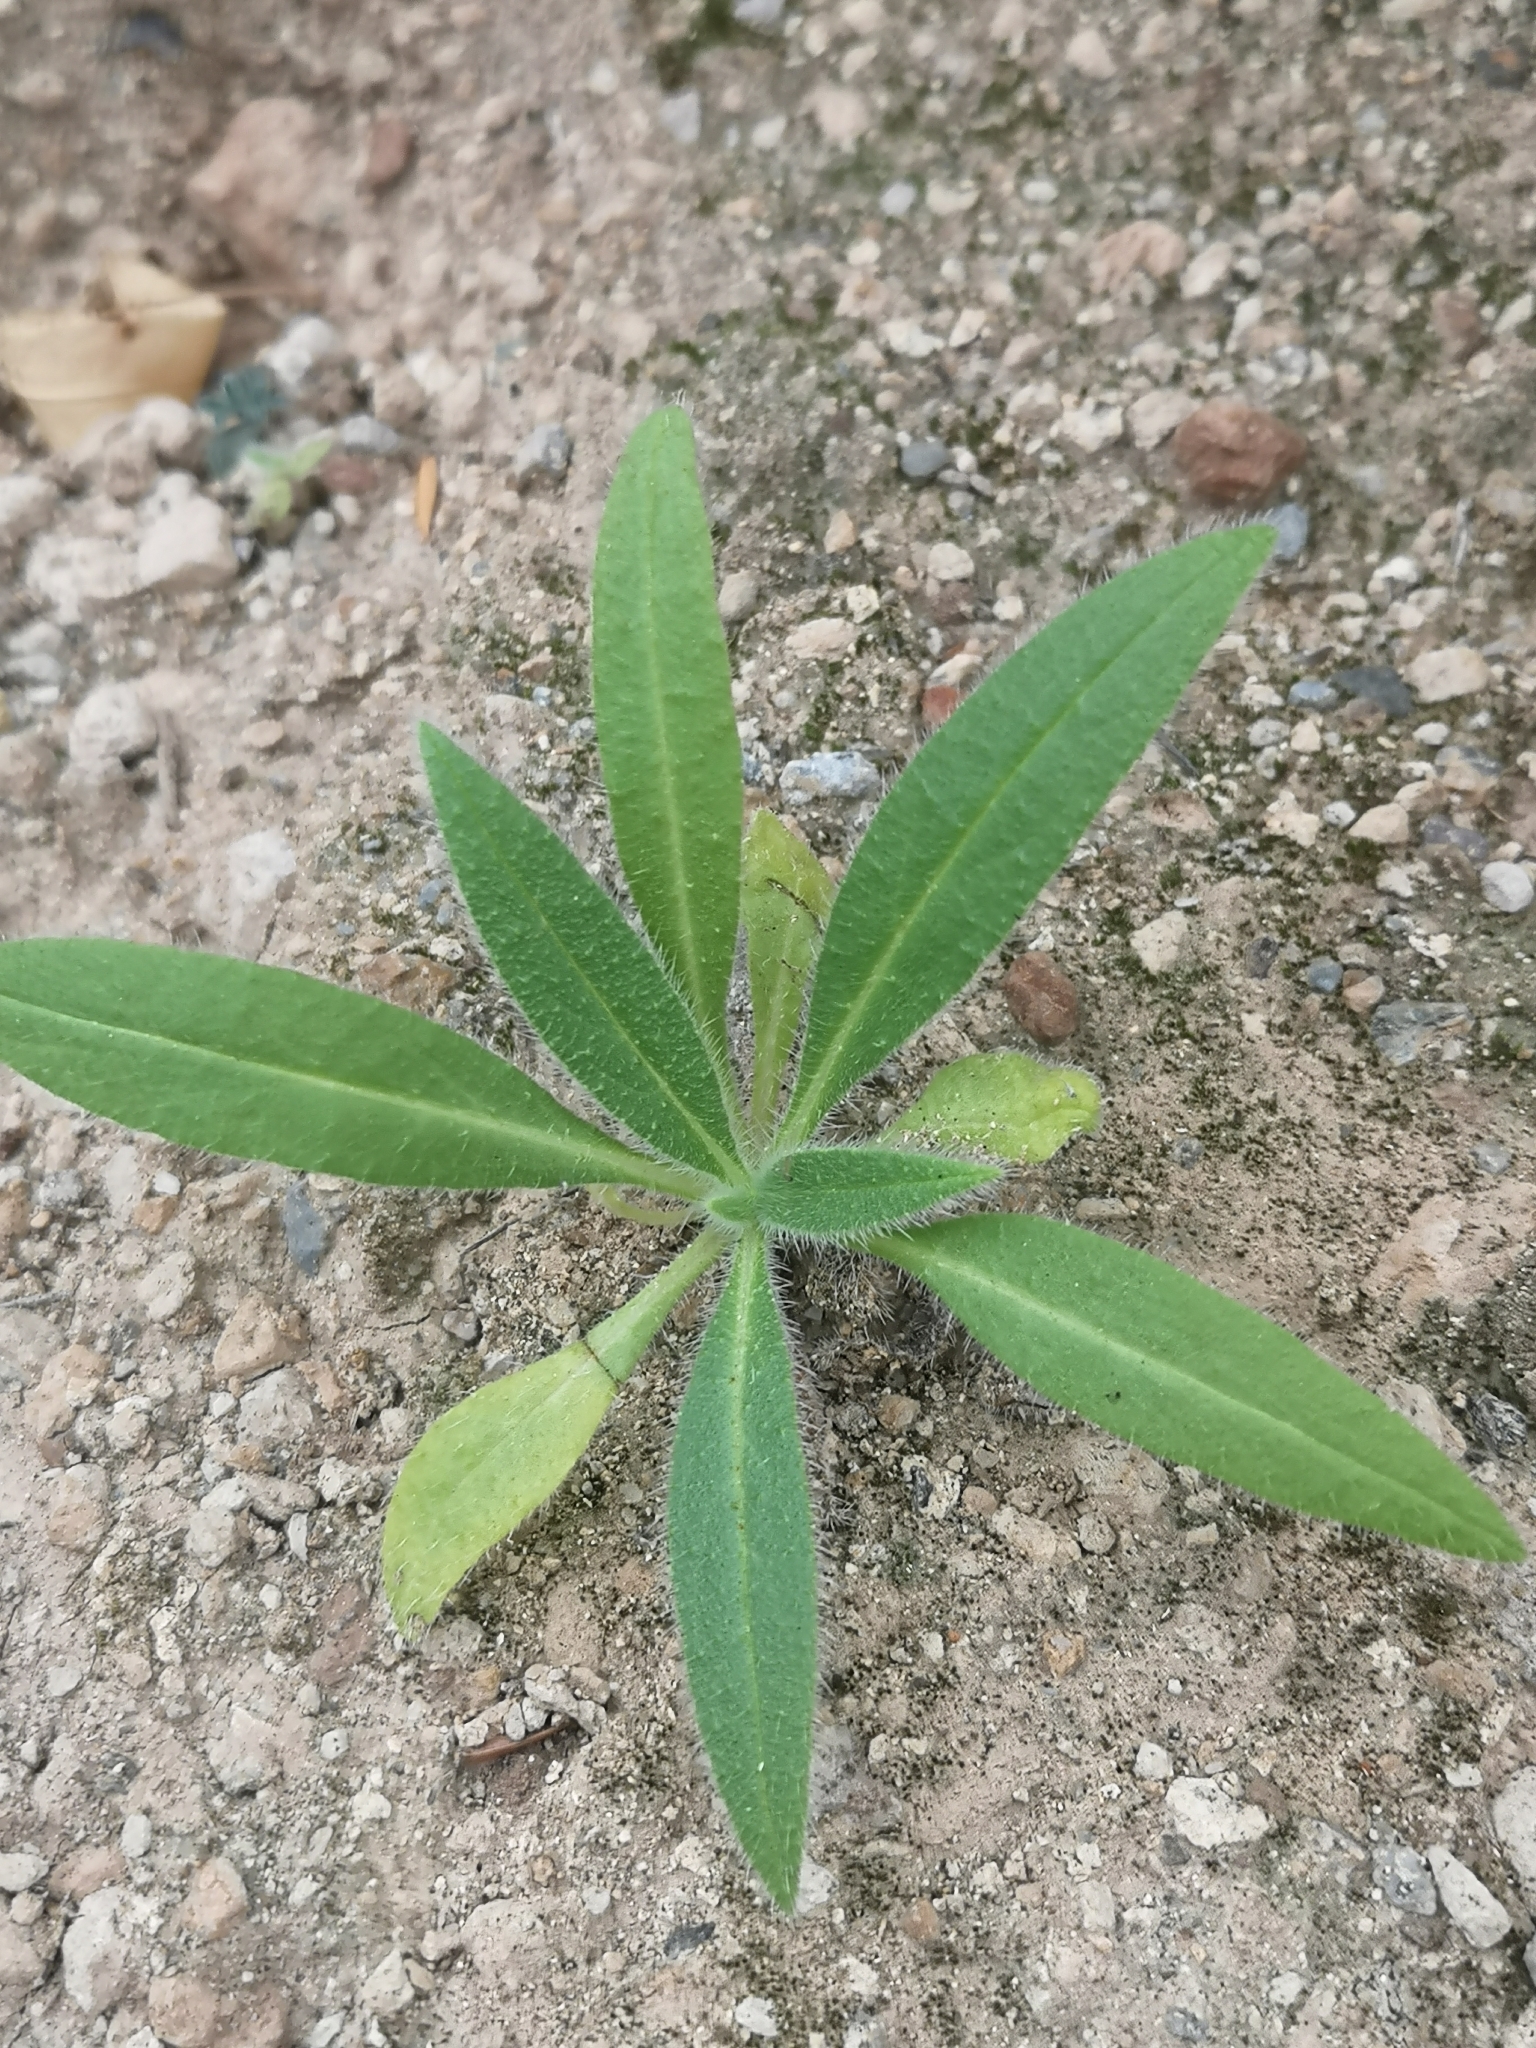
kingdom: Plantae
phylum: Tracheophyta
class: Magnoliopsida
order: Asterales
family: Asteraceae
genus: Dittrichia
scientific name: Dittrichia viscosa
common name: Woody fleabane
